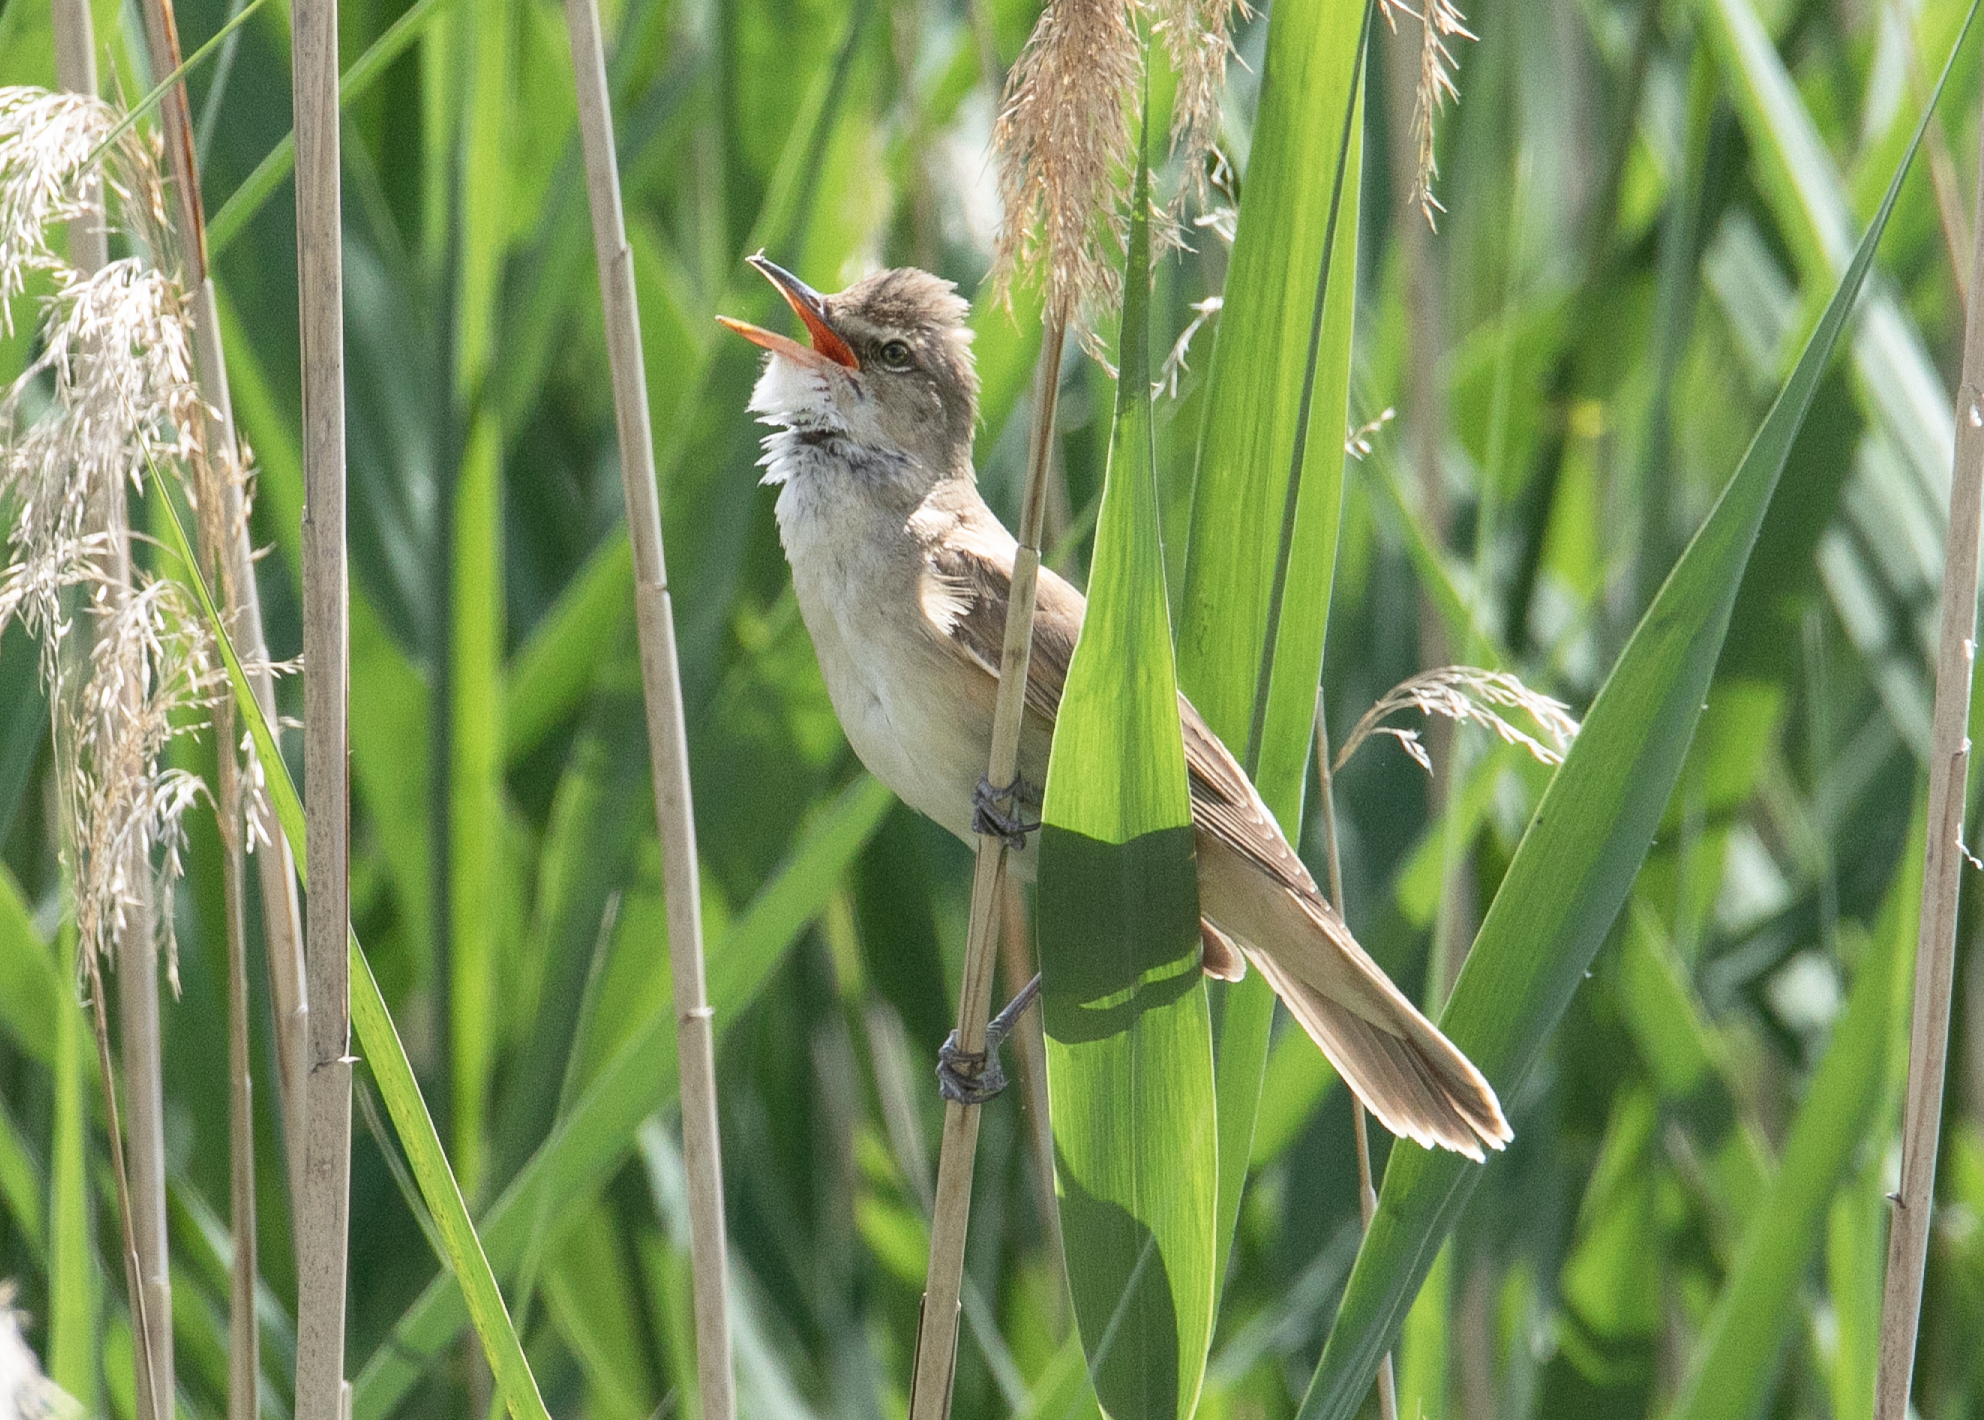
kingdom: Animalia
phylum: Chordata
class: Aves
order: Passeriformes
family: Acrocephalidae
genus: Acrocephalus
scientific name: Acrocephalus arundinaceus
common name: Great reed warbler
